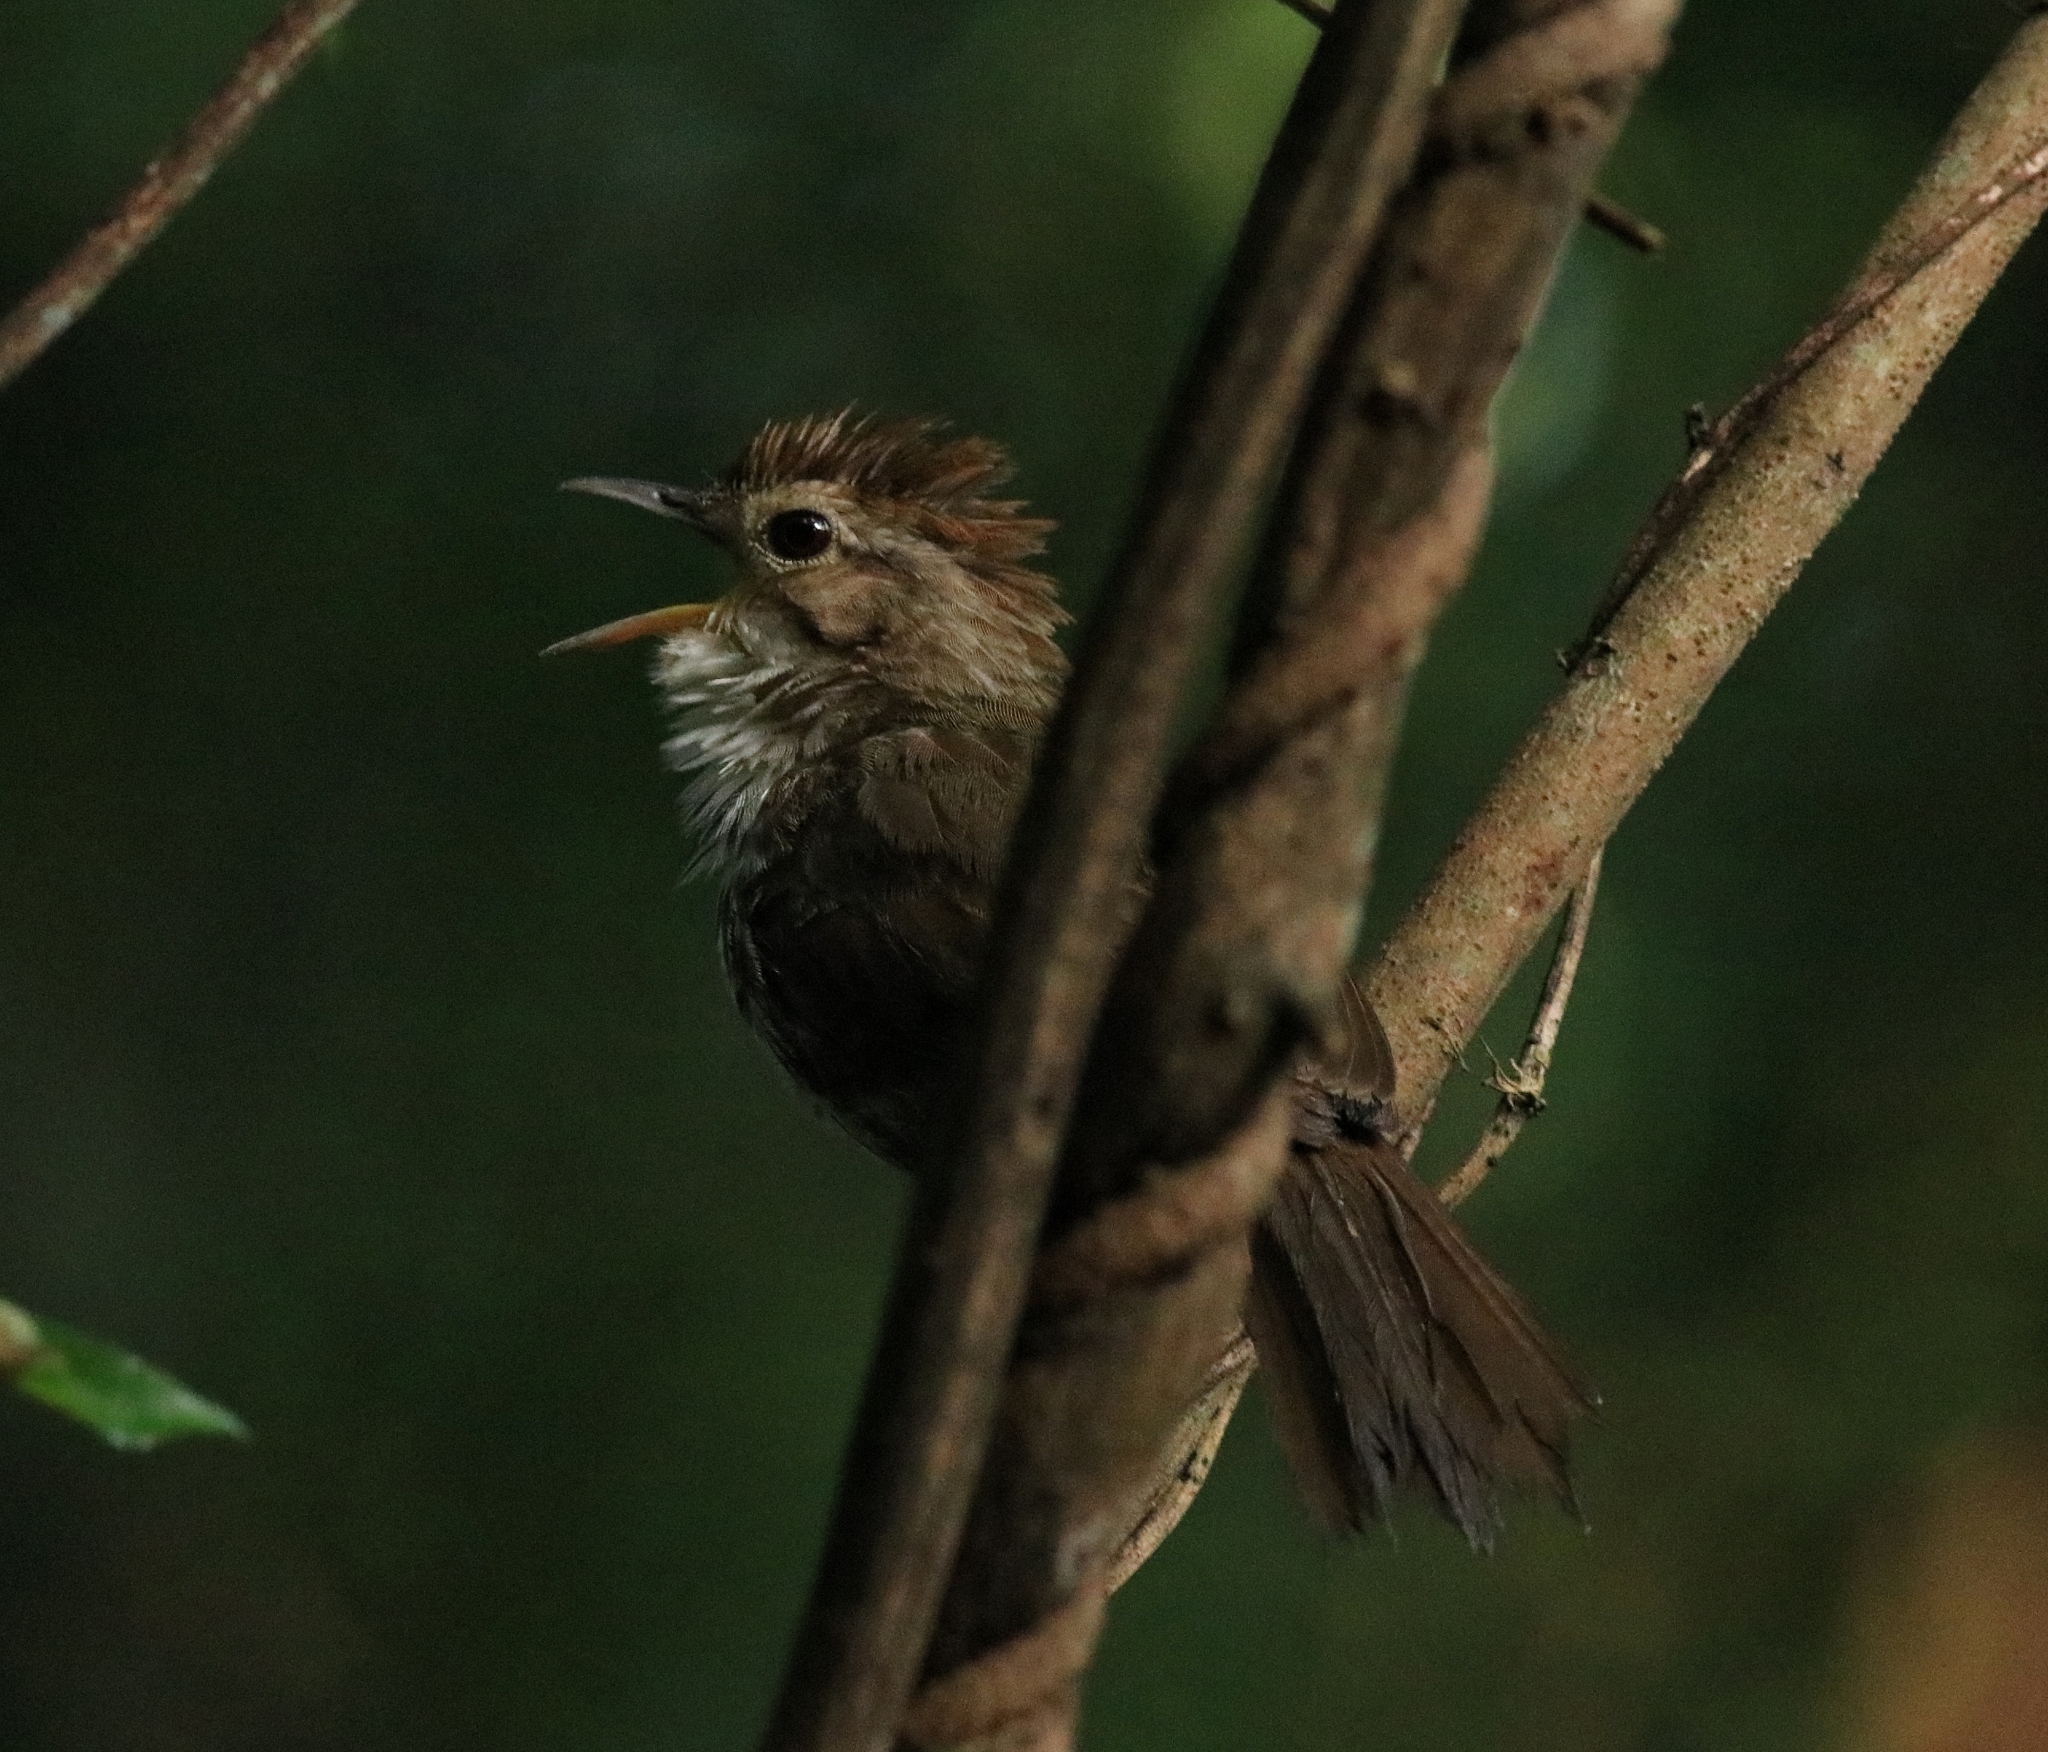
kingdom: Animalia
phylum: Chordata
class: Aves
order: Passeriformes
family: Pellorneidae
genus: Pellorneum
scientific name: Pellorneum ruficeps
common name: Puff-throated babbler
